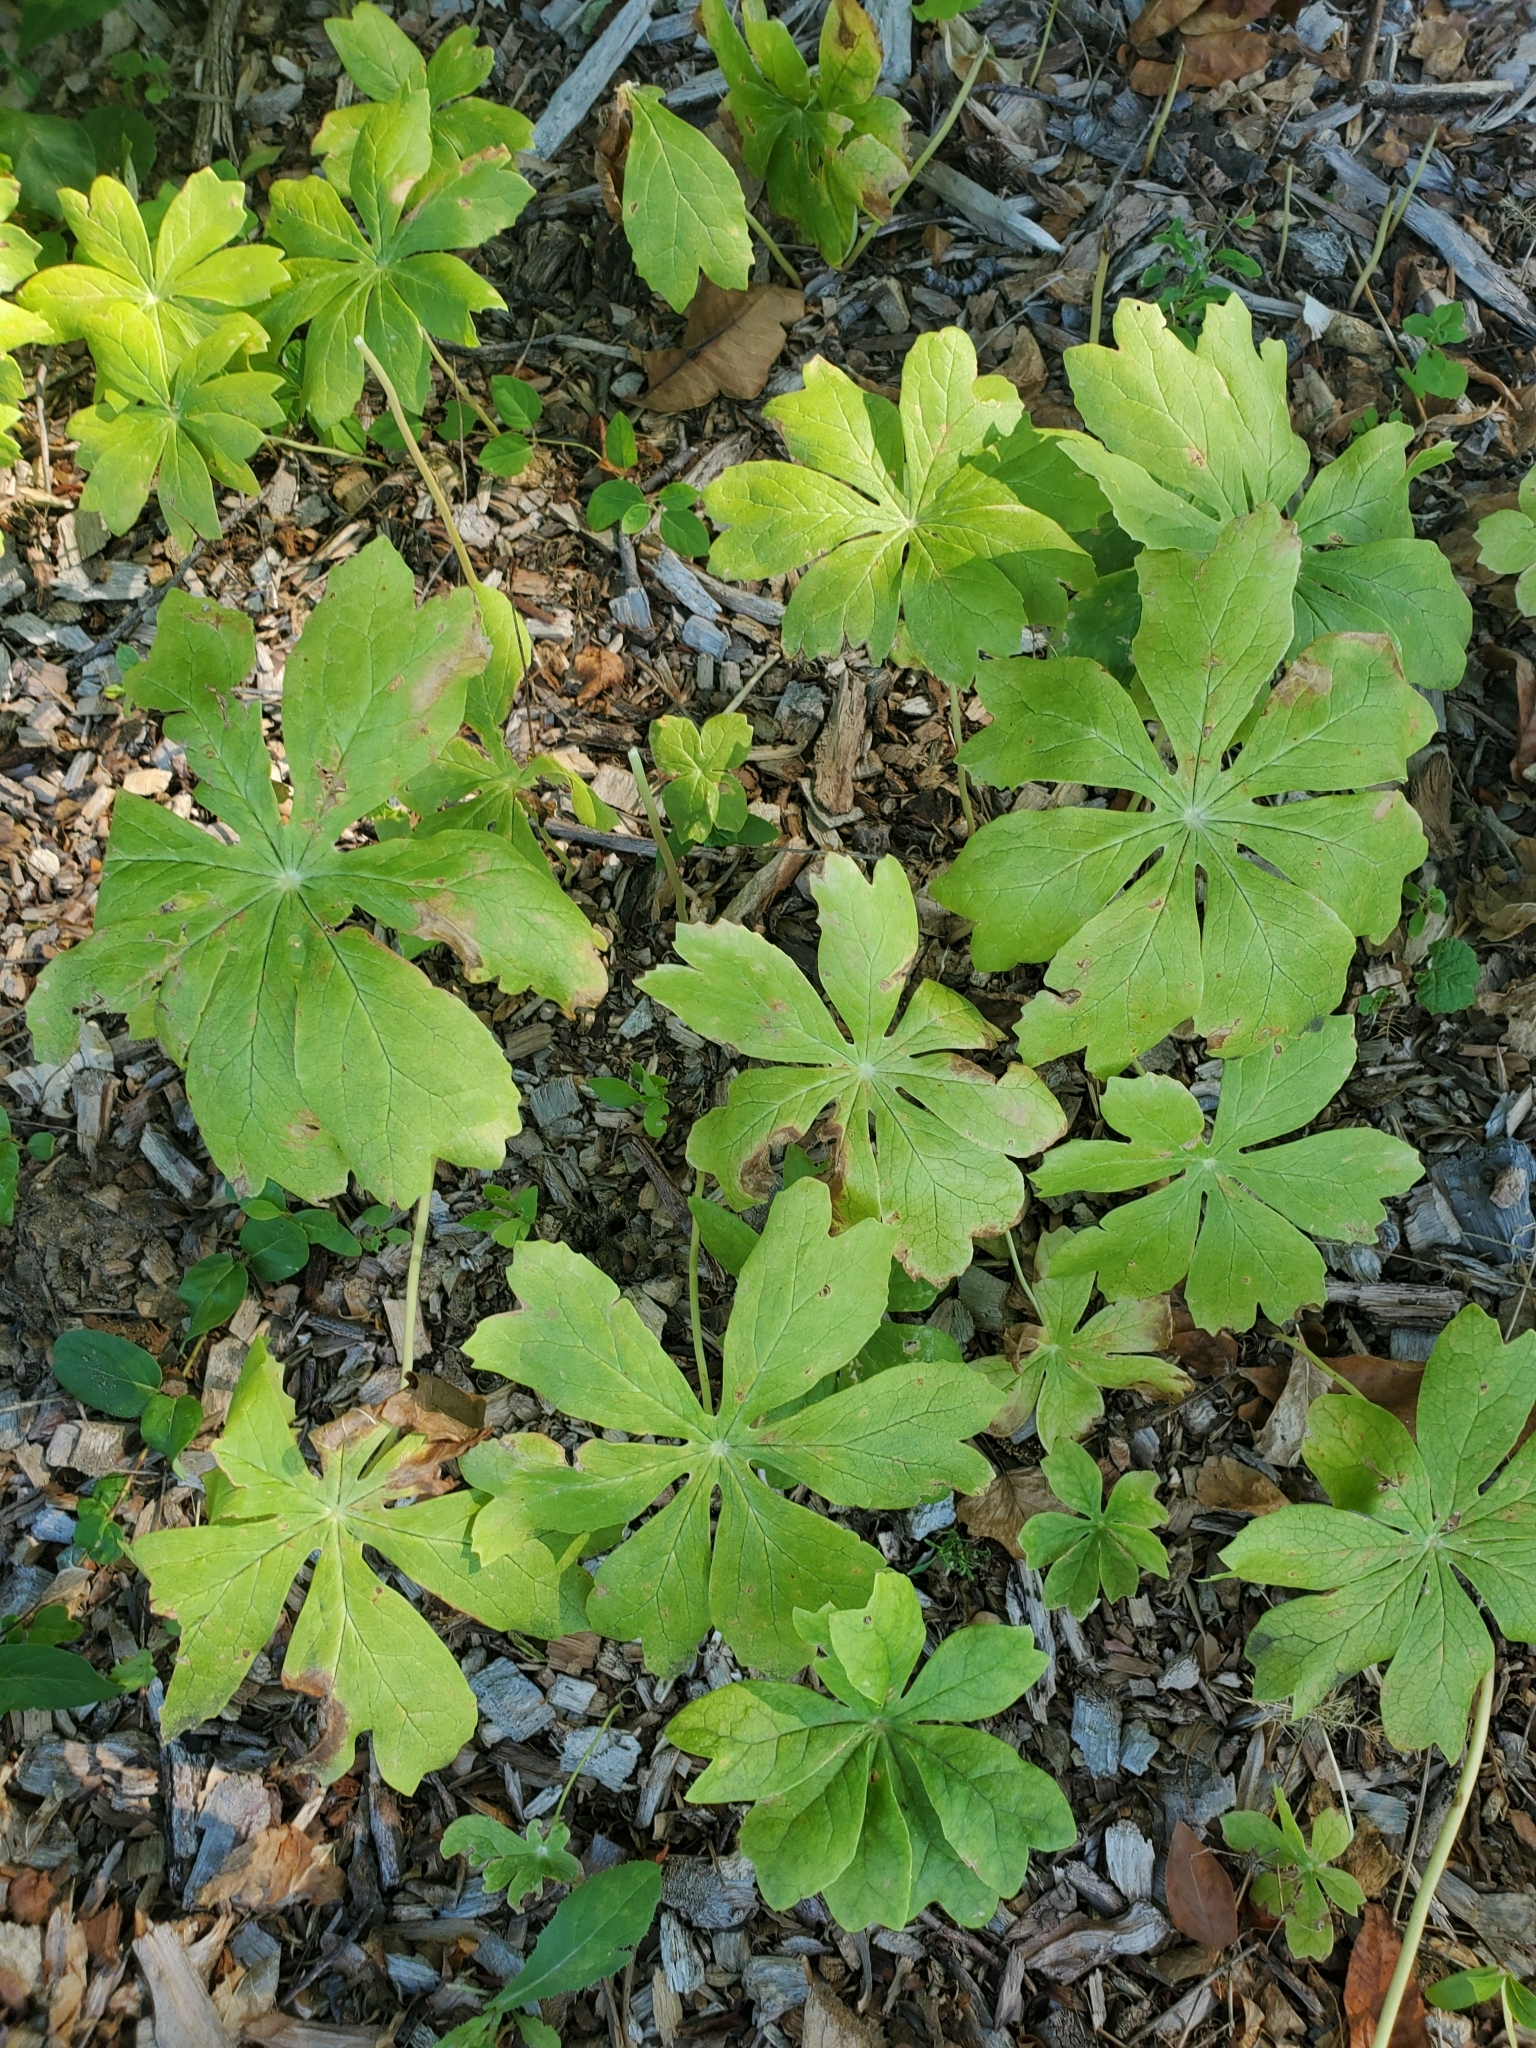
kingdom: Plantae
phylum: Tracheophyta
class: Magnoliopsida
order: Ranunculales
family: Berberidaceae
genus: Podophyllum
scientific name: Podophyllum peltatum
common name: Wild mandrake
